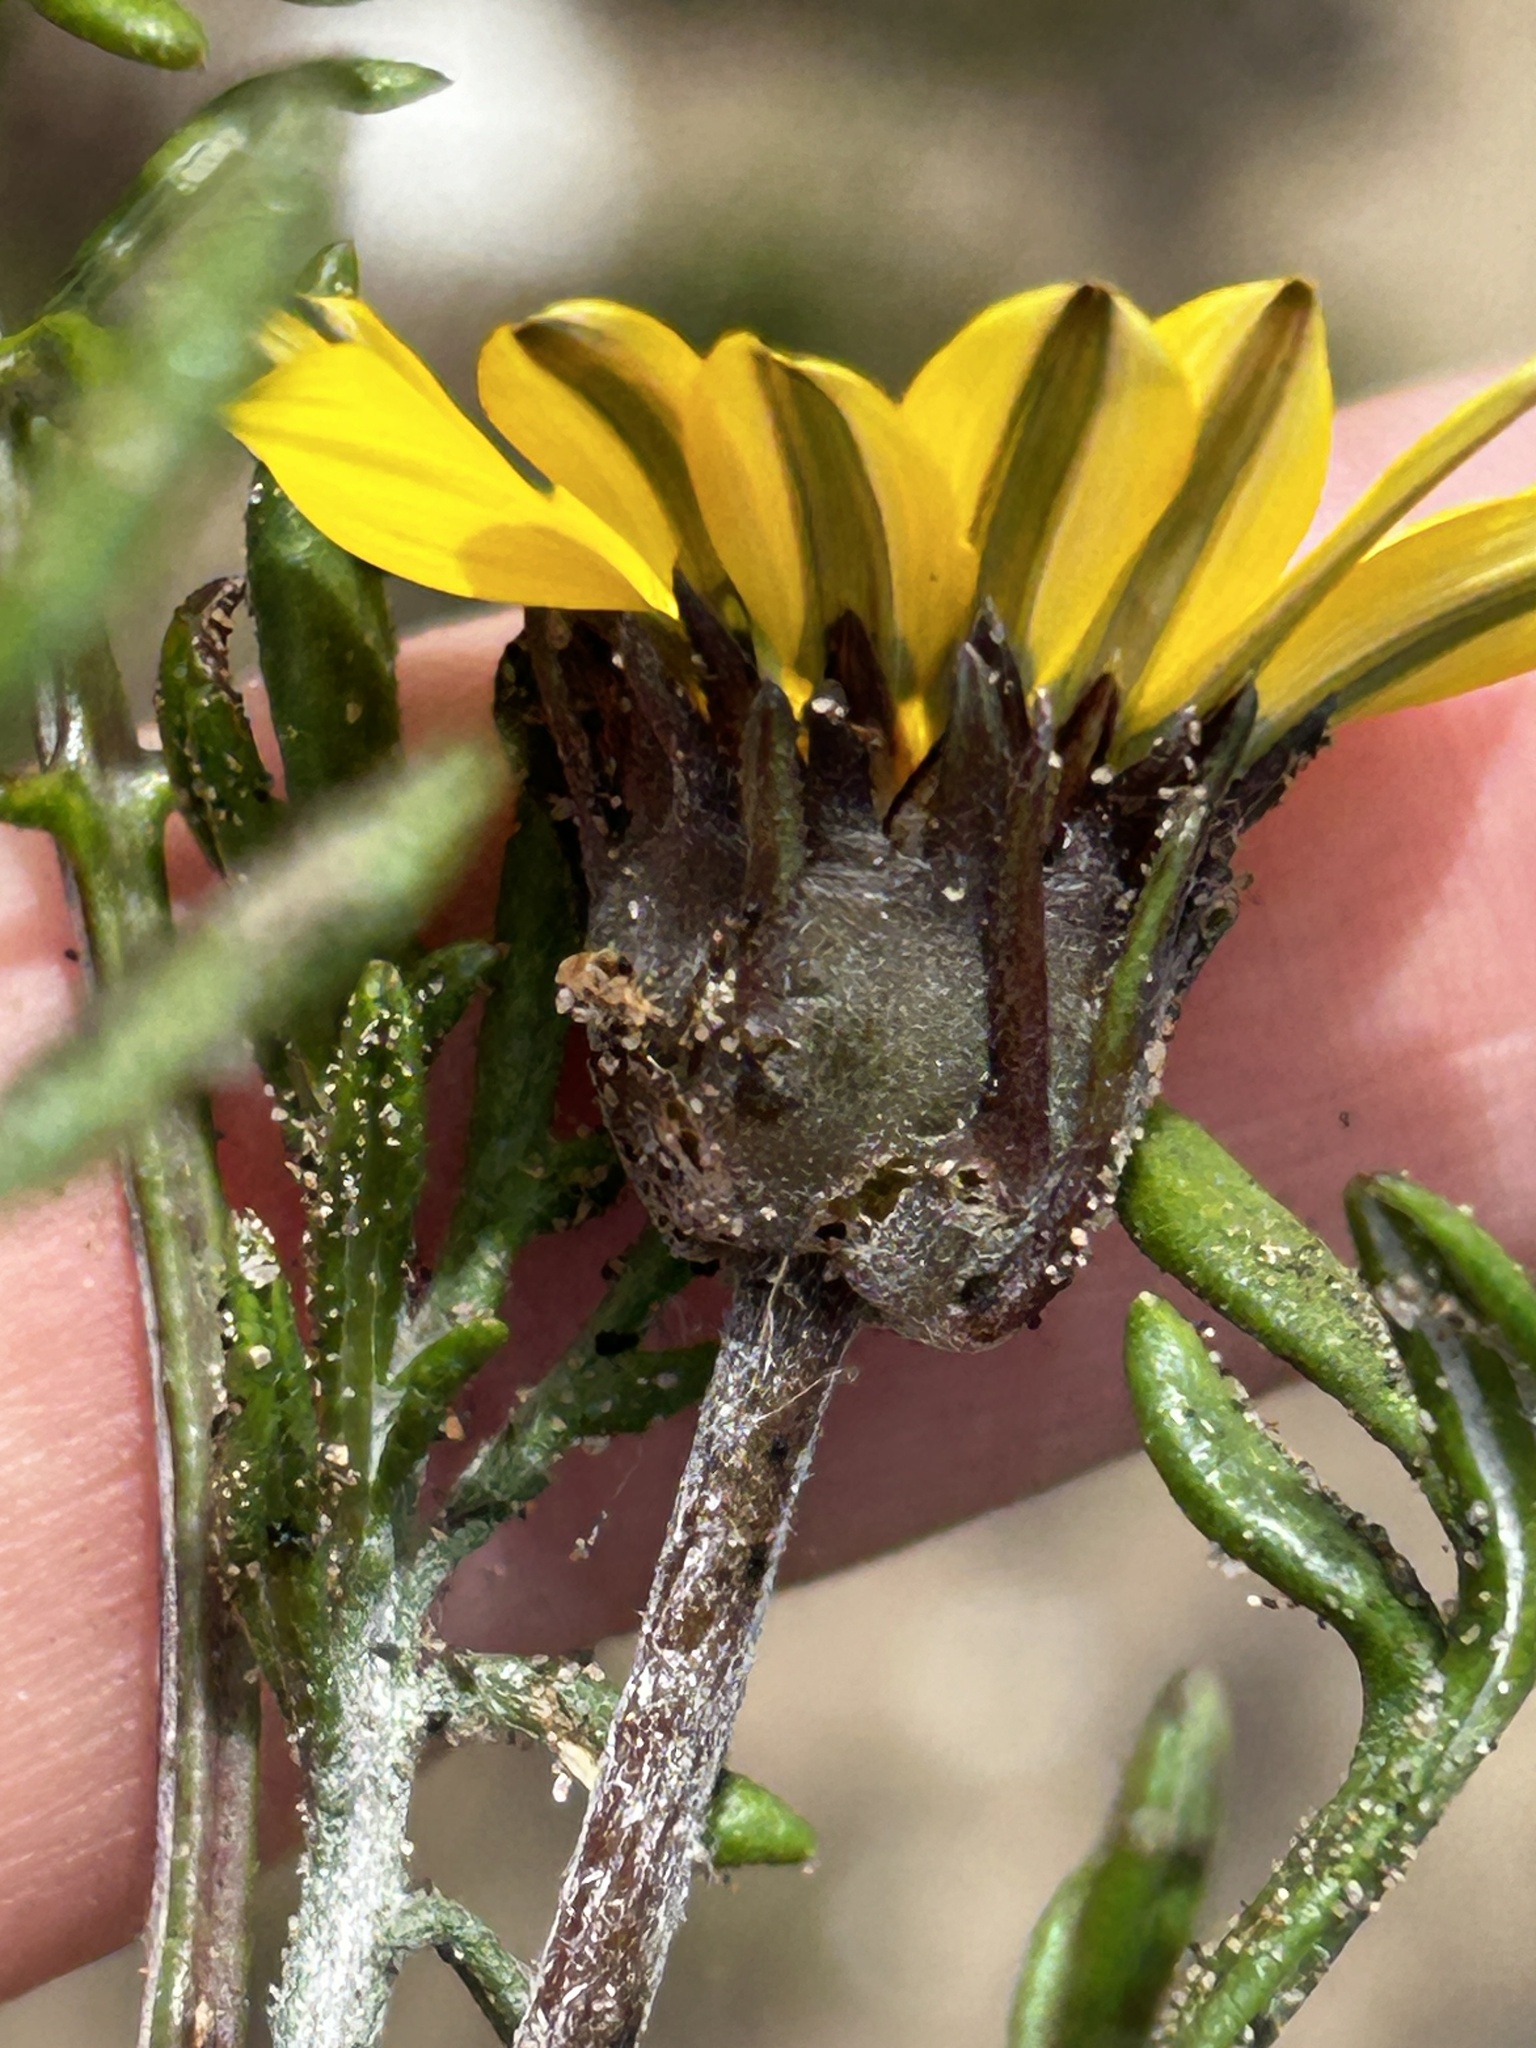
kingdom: Plantae
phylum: Tracheophyta
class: Magnoliopsida
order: Asterales
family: Asteraceae
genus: Gazania
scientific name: Gazania pectinata
